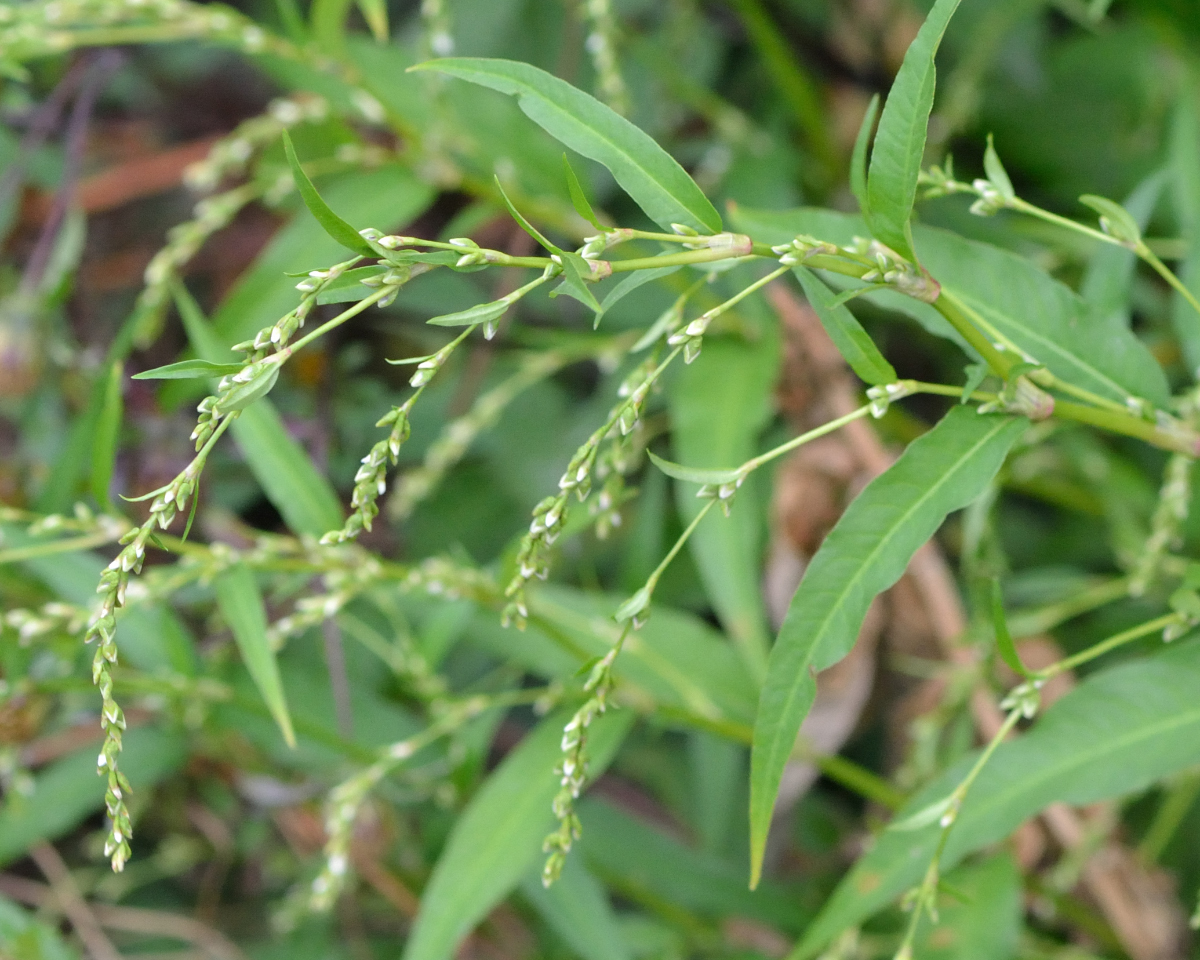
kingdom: Plantae
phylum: Tracheophyta
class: Magnoliopsida
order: Caryophyllales
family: Polygonaceae
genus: Persicaria
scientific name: Persicaria hydropiper
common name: Water-pepper
